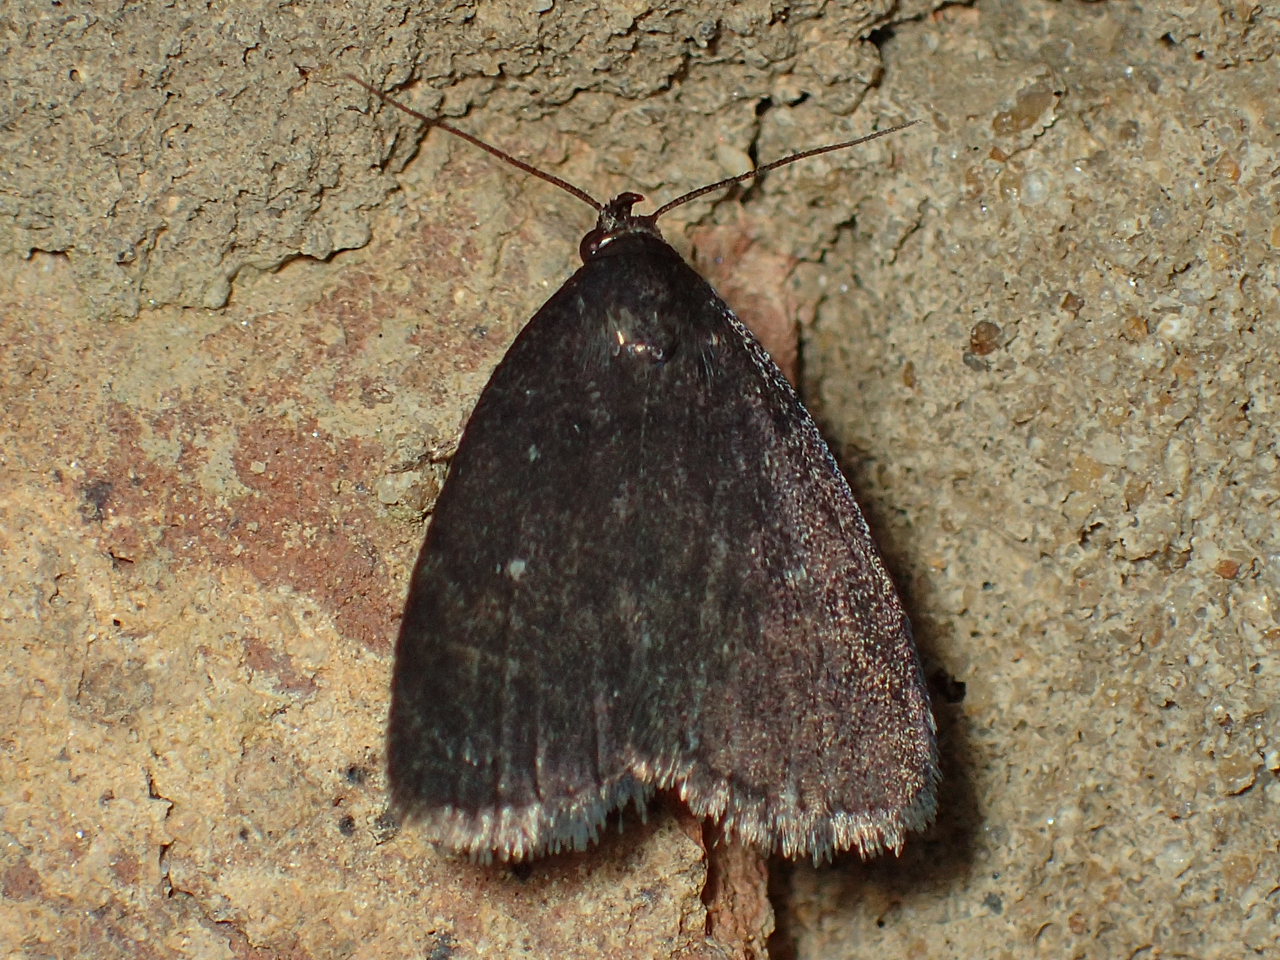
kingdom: Animalia
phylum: Arthropoda
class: Insecta
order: Lepidoptera
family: Erebidae
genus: Idia
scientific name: Idia rotundalis
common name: Rotund idia moth
